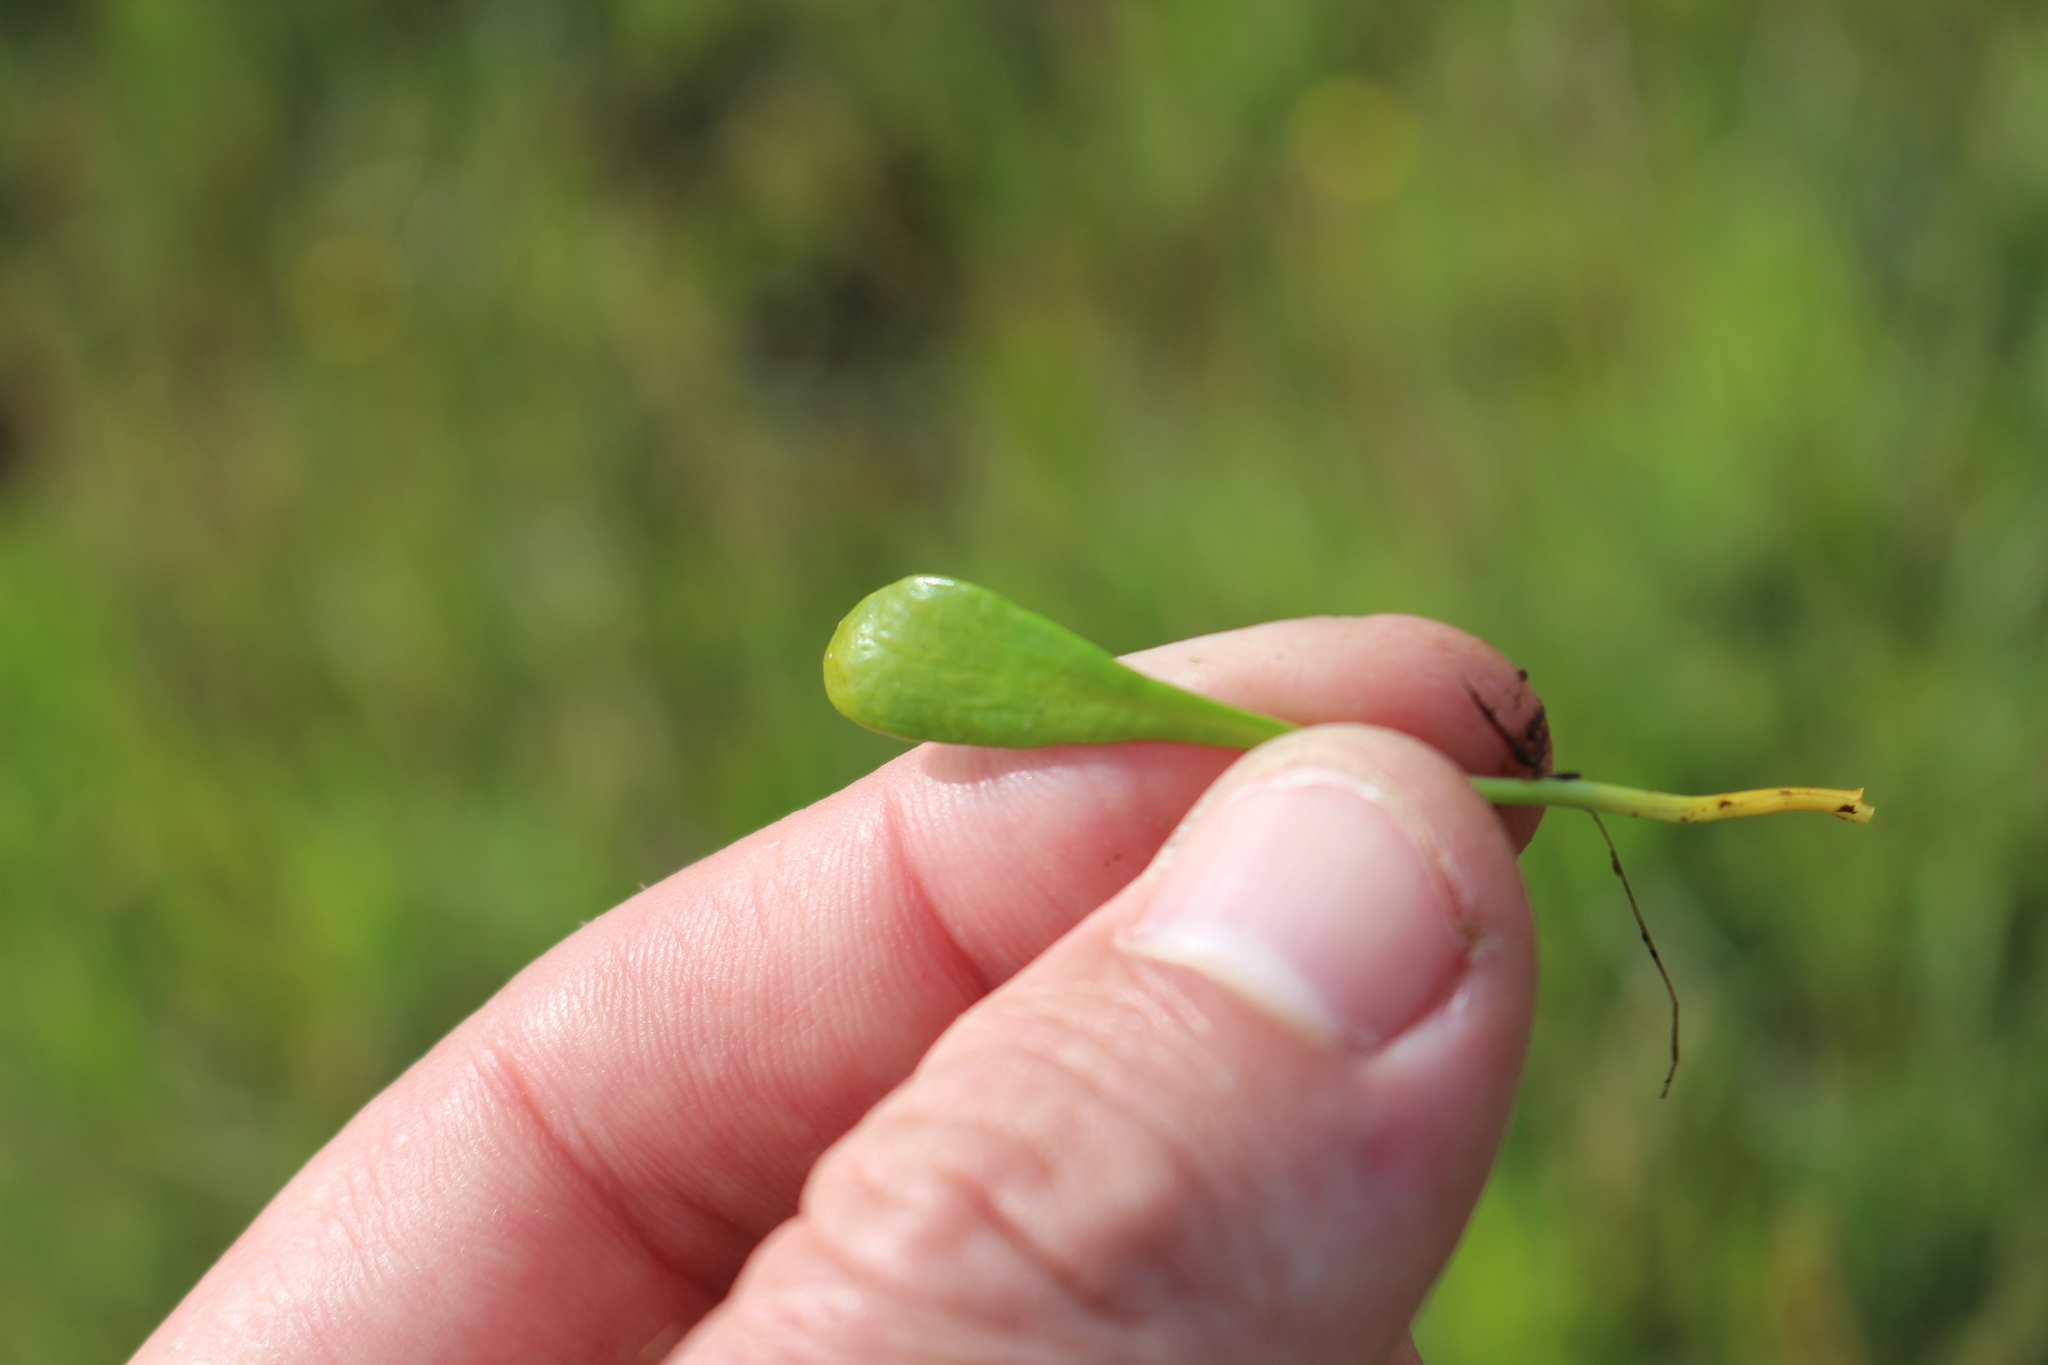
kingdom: Plantae
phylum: Tracheophyta
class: Magnoliopsida
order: Asterales
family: Goodeniaceae
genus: Goodenia
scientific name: Goodenia radicans
